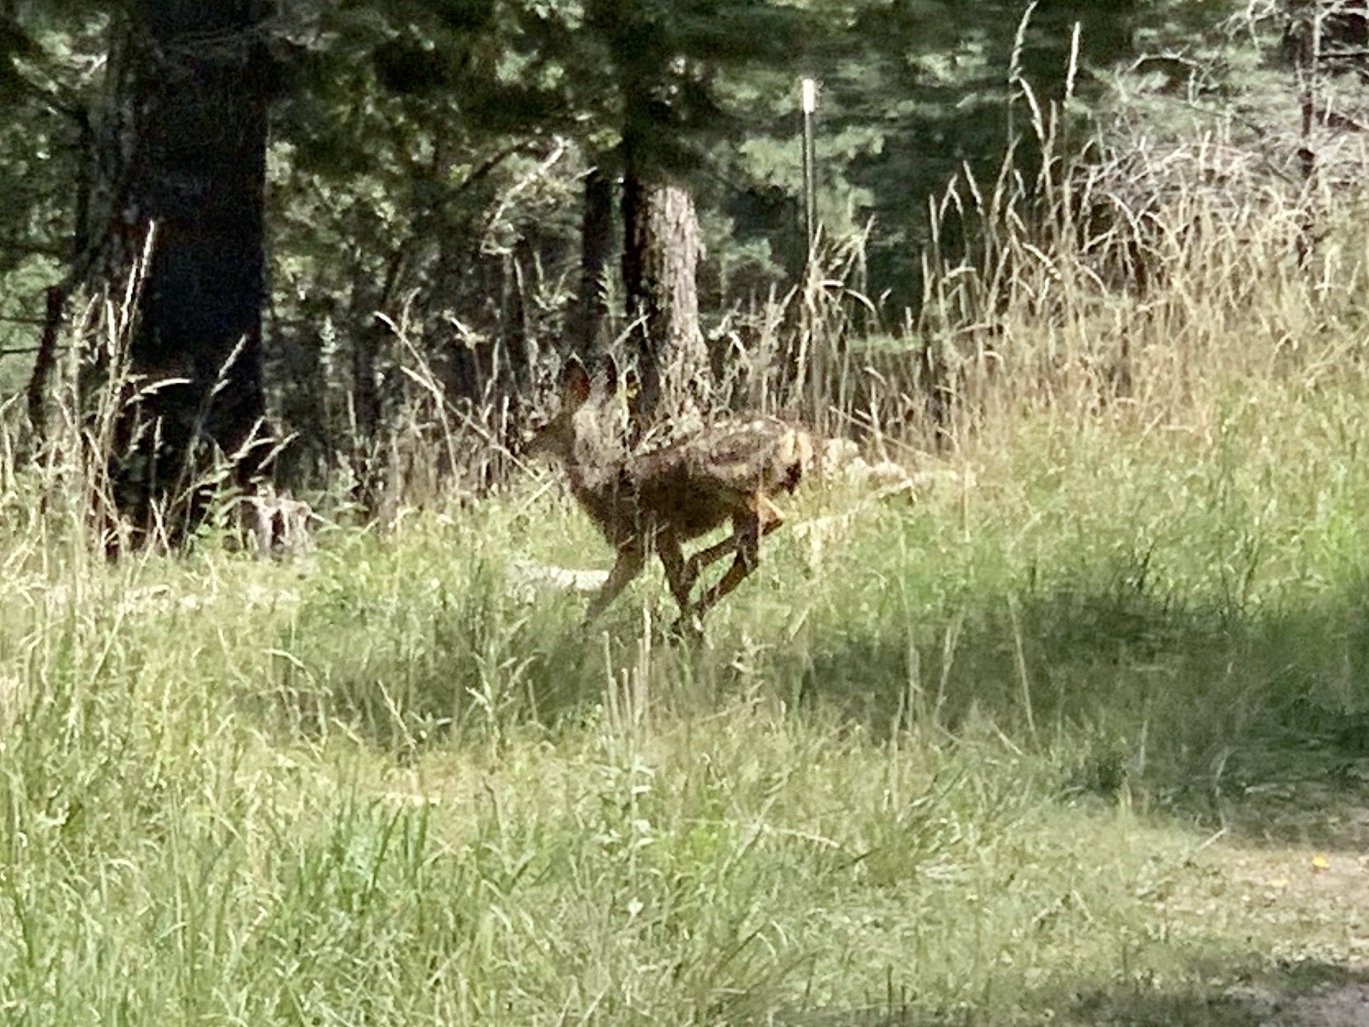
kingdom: Animalia
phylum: Chordata
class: Mammalia
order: Artiodactyla
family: Cervidae
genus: Odocoileus
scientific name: Odocoileus hemionus
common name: Mule deer
